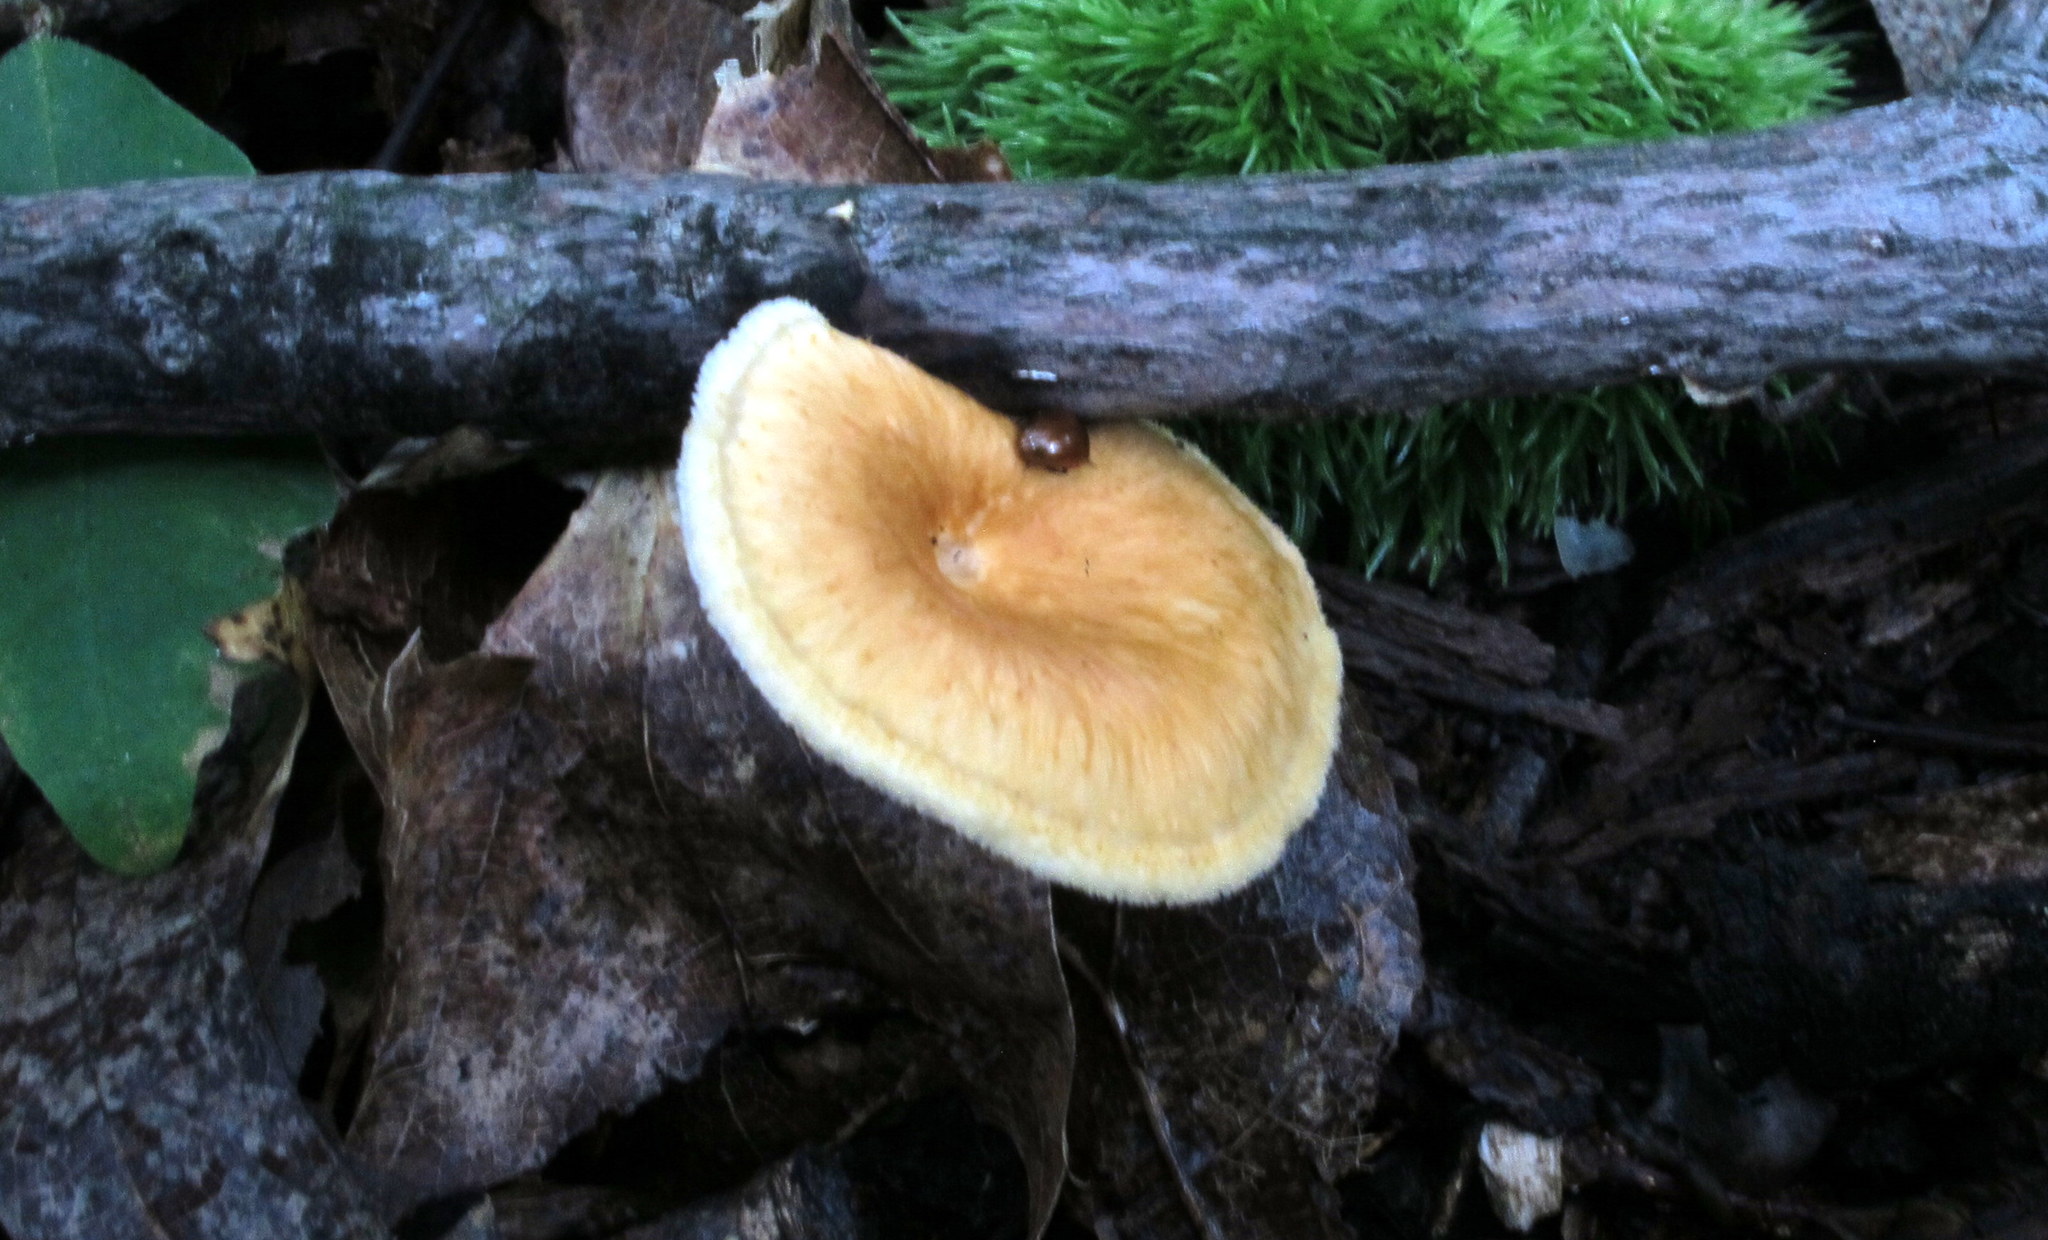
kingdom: Fungi
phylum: Basidiomycota
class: Agaricomycetes
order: Polyporales
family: Polyporaceae
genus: Neofavolus
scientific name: Neofavolus alveolaris
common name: Hexagonal-pored polypore
